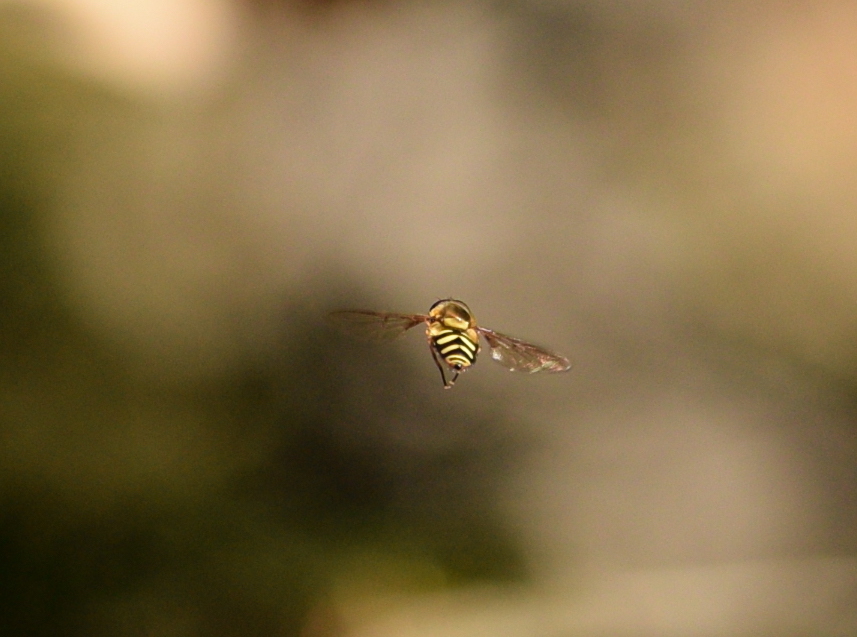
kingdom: Animalia
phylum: Arthropoda
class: Insecta
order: Diptera
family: Syrphidae
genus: Syrphus
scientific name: Syrphus opinator
